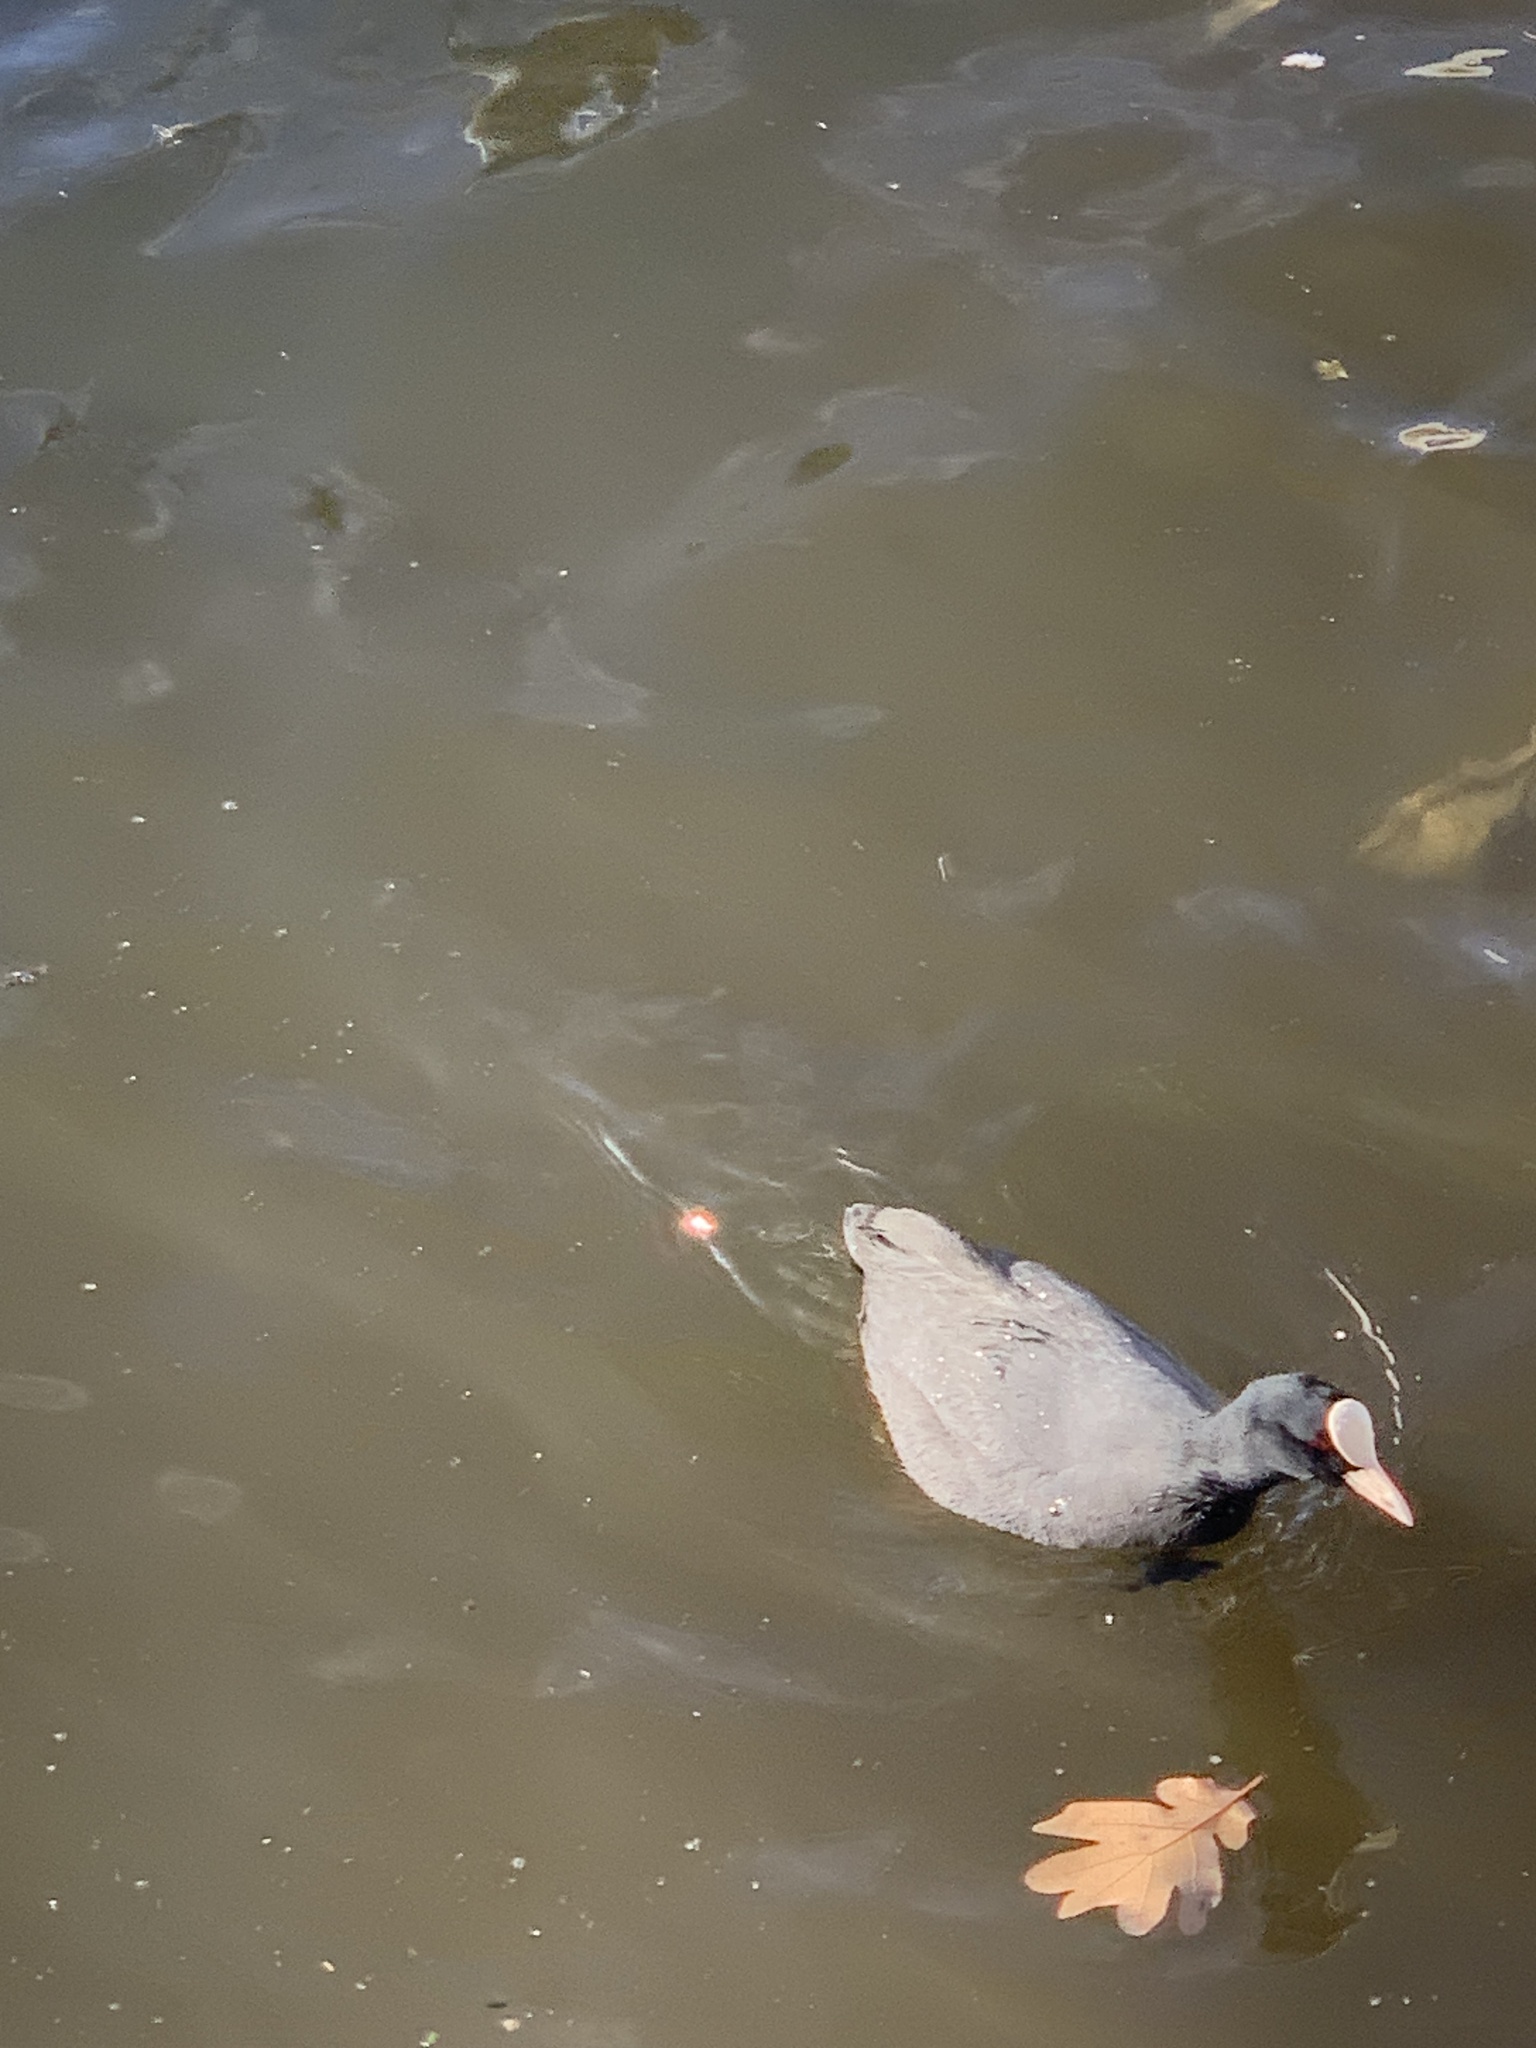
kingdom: Animalia
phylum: Chordata
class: Aves
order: Gruiformes
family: Rallidae
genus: Fulica
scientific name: Fulica atra
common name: Eurasian coot
